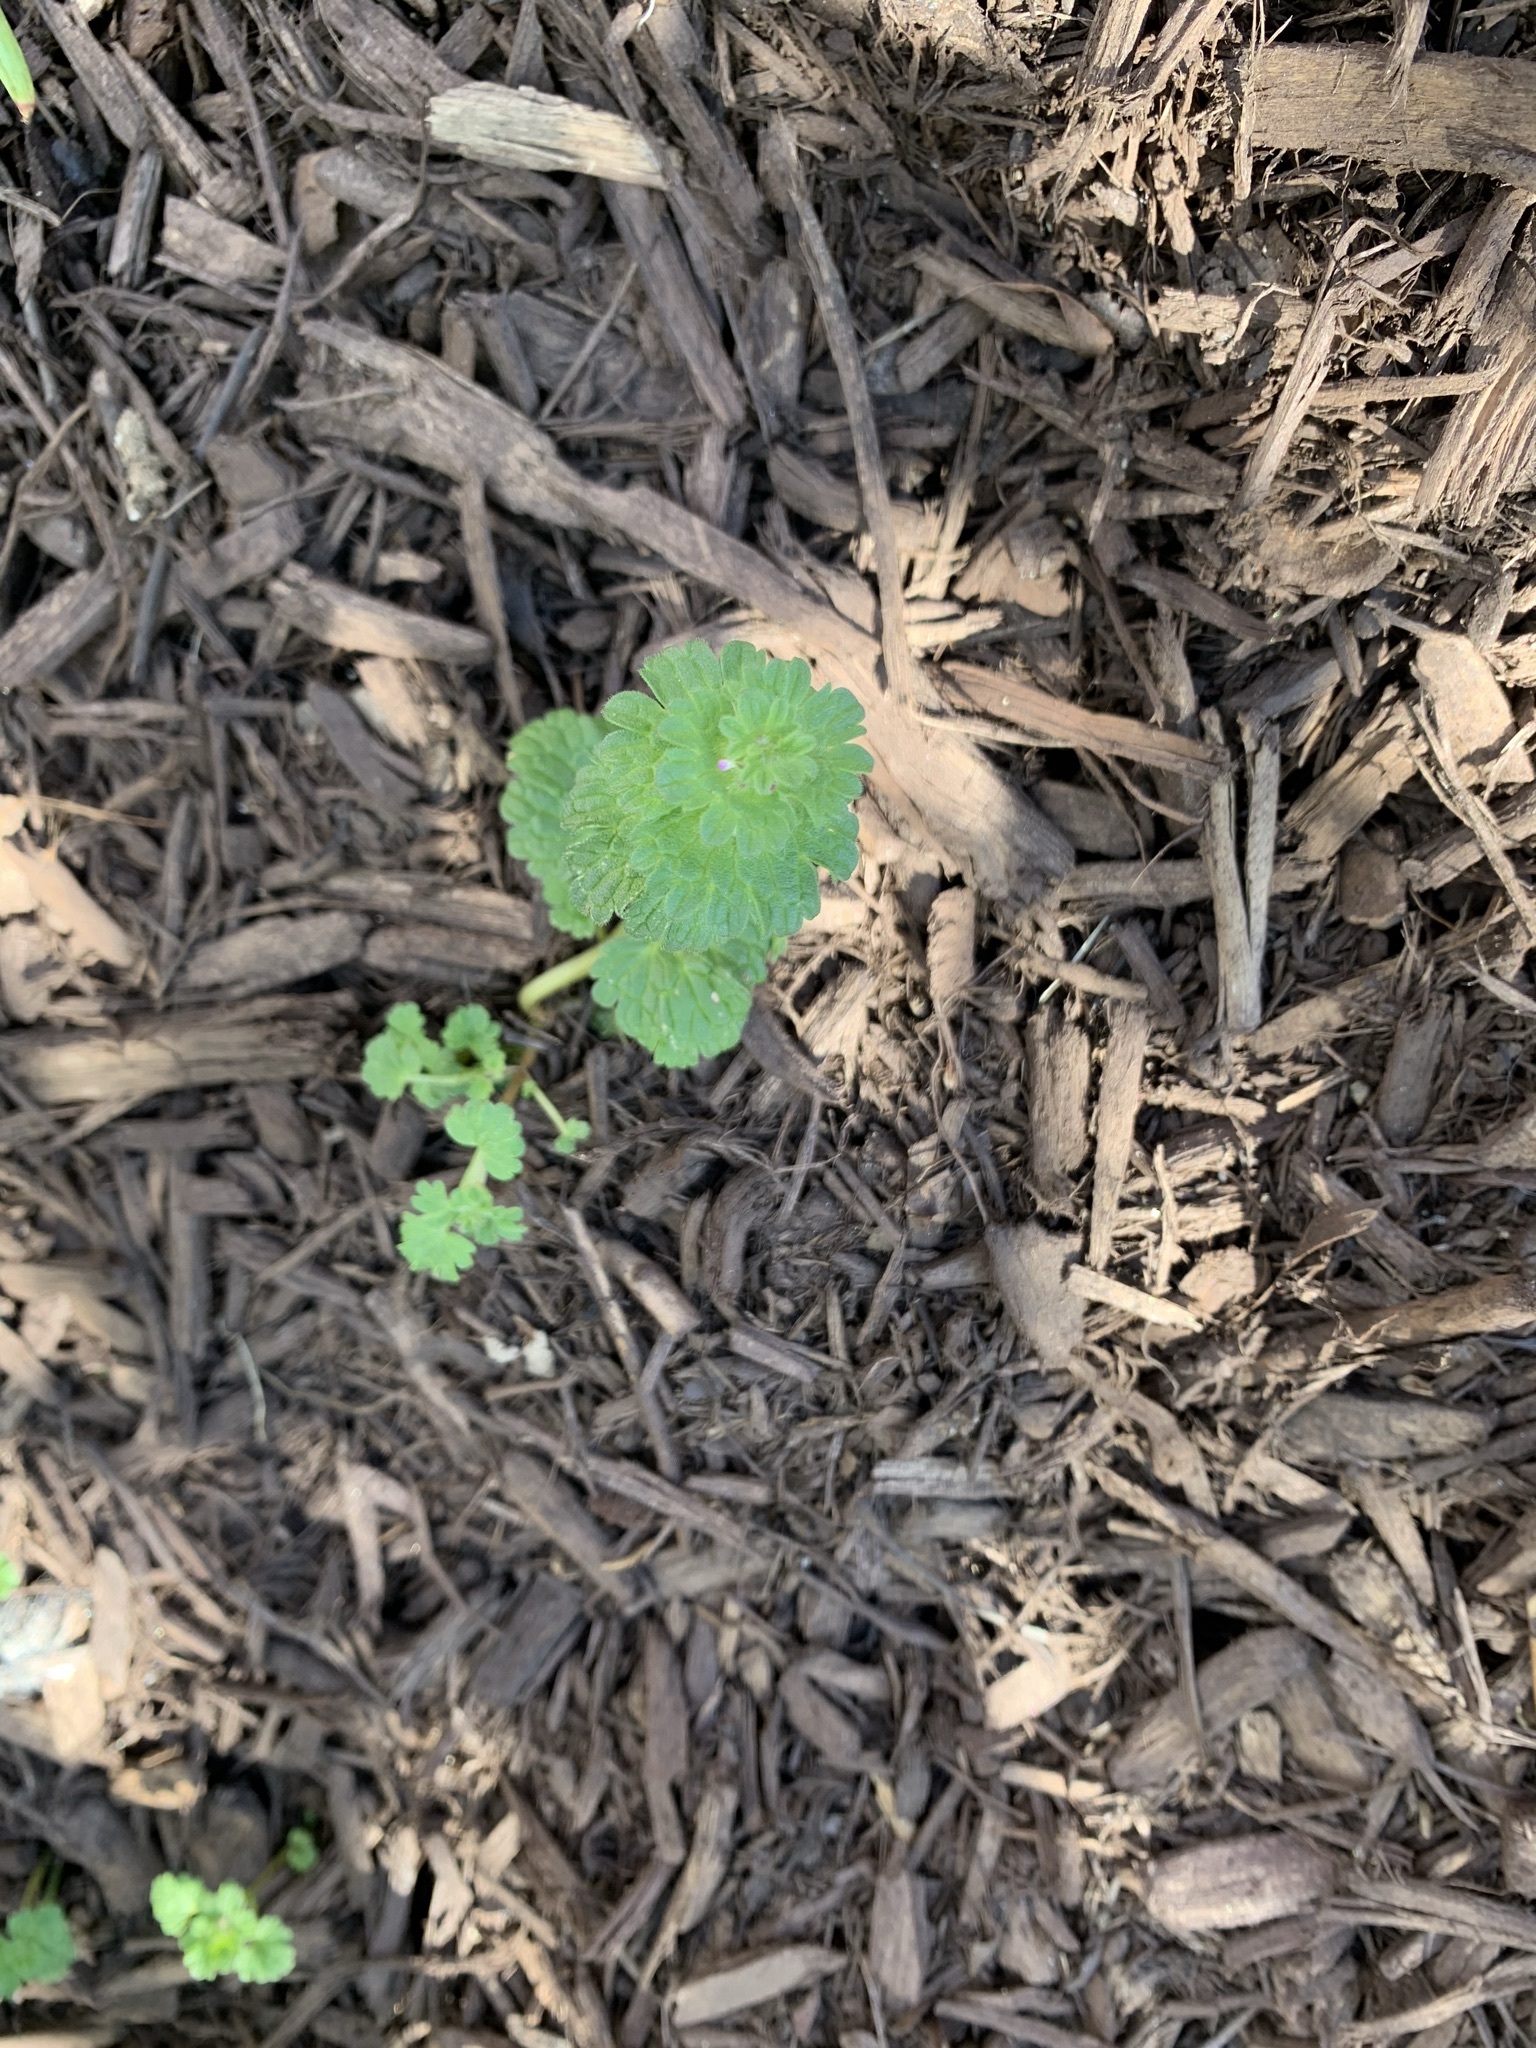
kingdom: Plantae
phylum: Tracheophyta
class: Magnoliopsida
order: Lamiales
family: Lamiaceae
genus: Lamium
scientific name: Lamium amplexicaule
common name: Henbit dead-nettle
